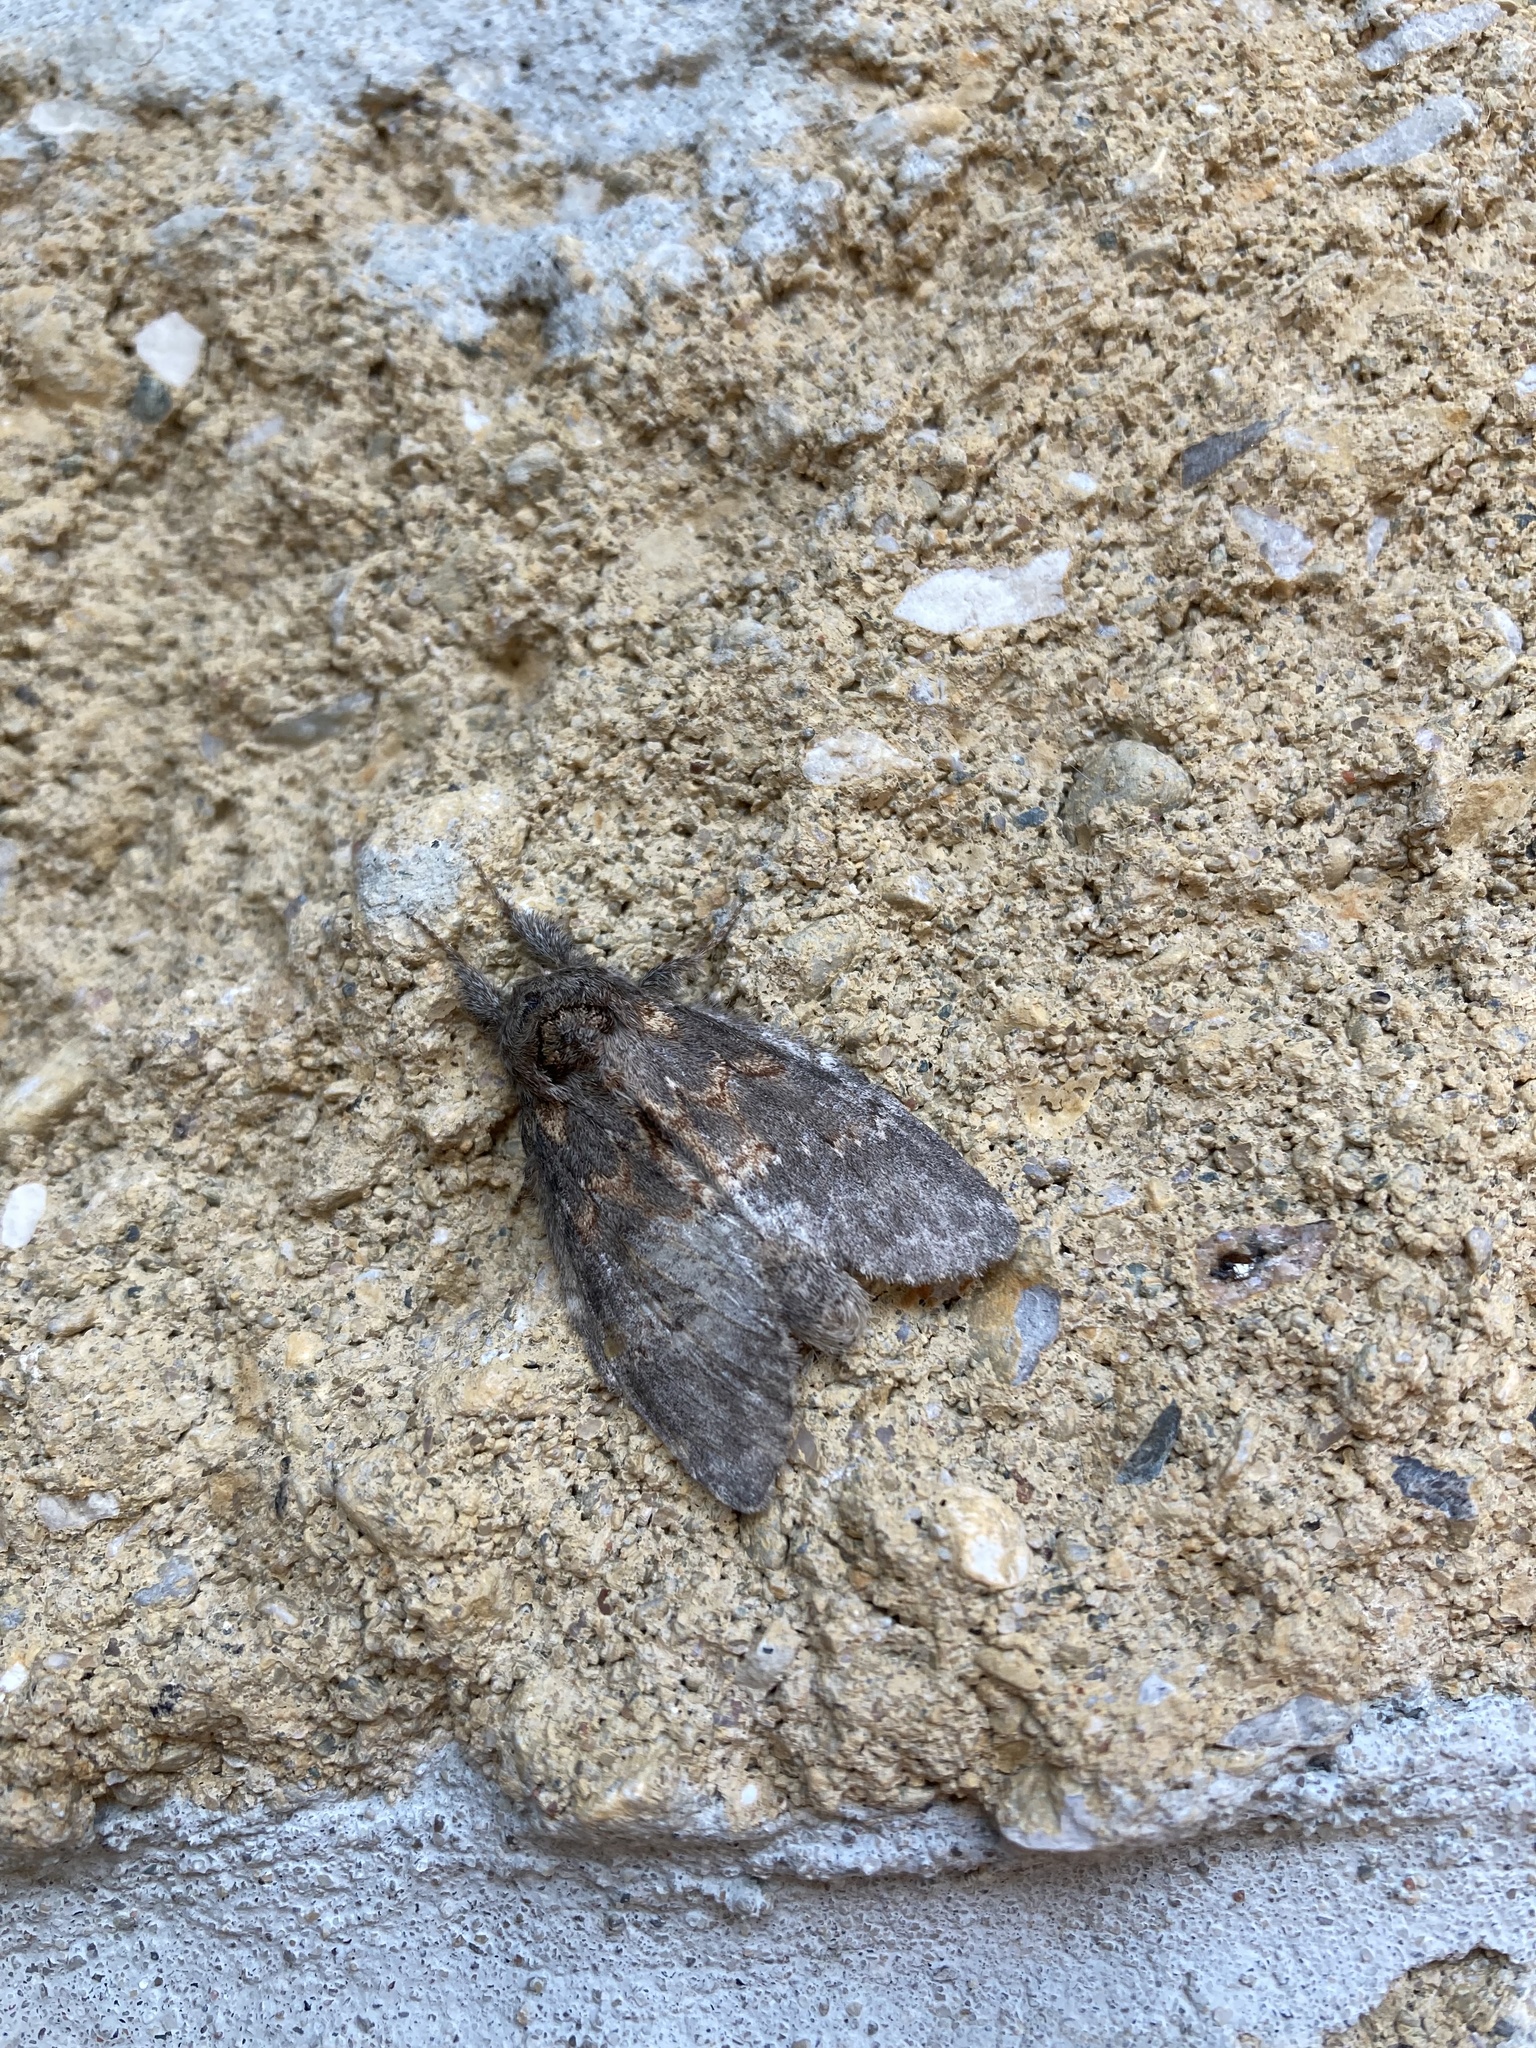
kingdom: Animalia
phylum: Arthropoda
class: Insecta
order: Lepidoptera
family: Notodontidae
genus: Peridea
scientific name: Peridea angulosa
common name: Angulose prominent
